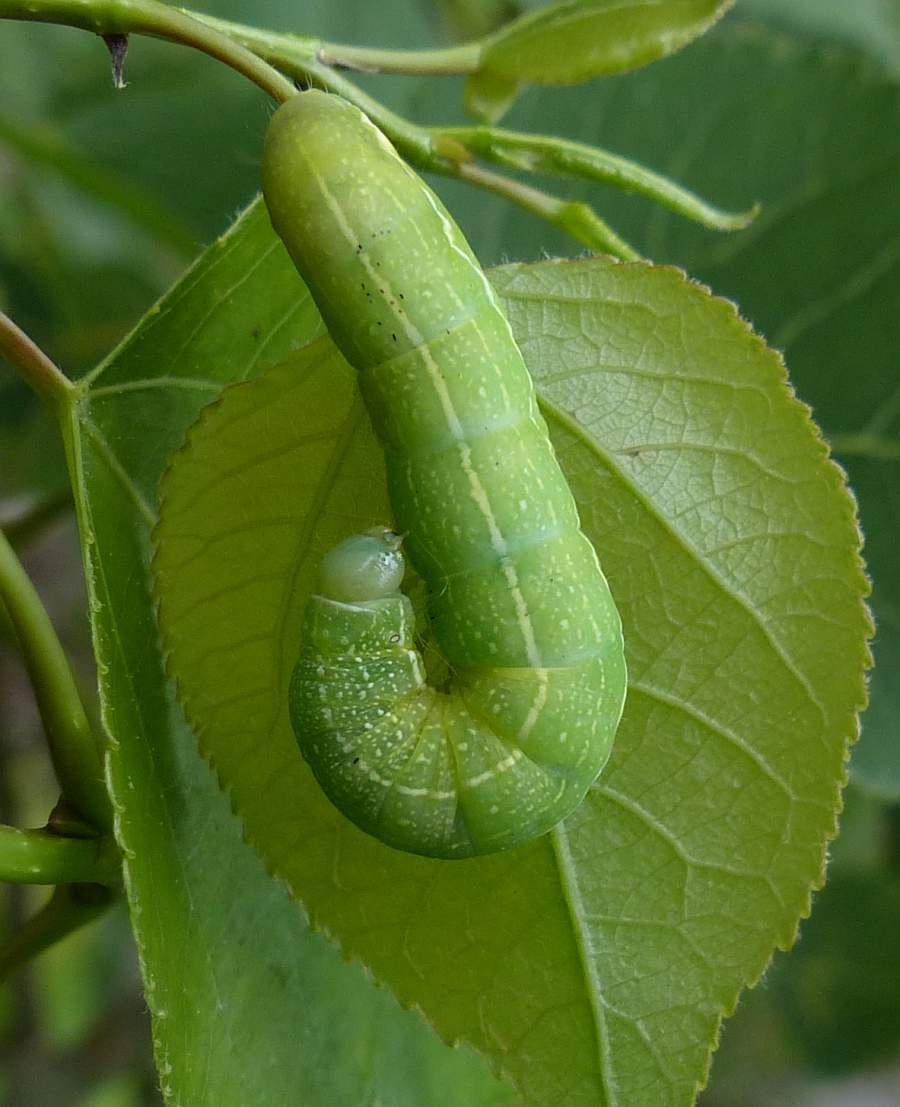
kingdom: Animalia
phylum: Arthropoda
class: Insecta
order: Lepidoptera
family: Noctuidae
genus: Orthosia
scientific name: Orthosia hibisci
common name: Green fruitworm
